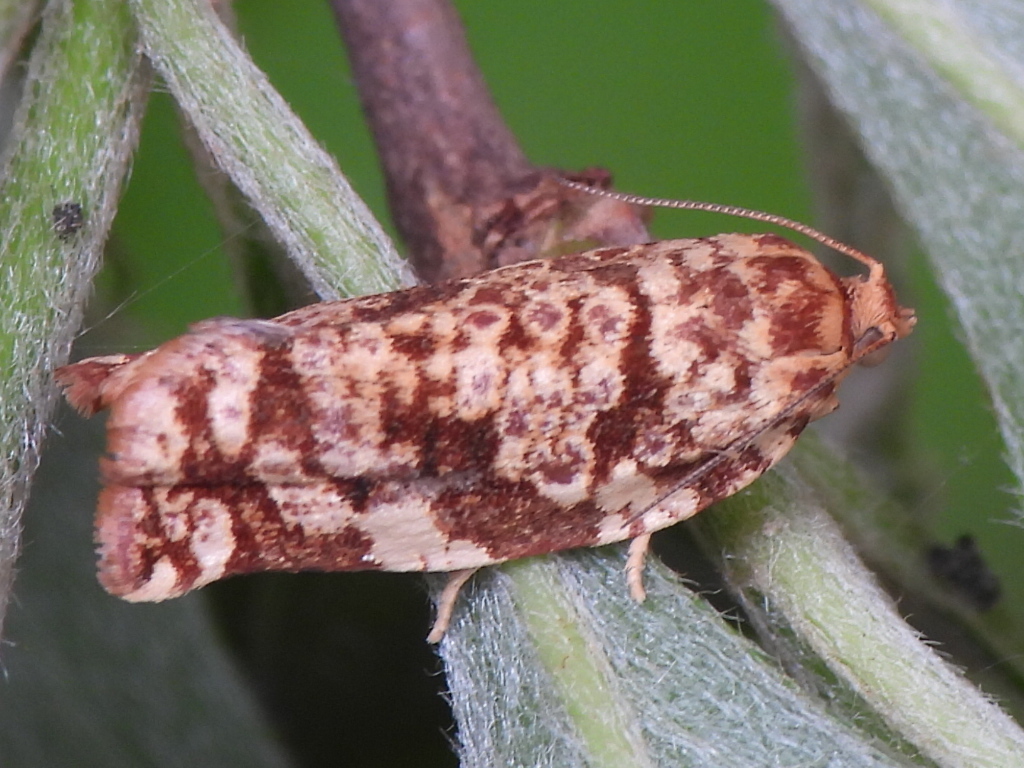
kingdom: Animalia
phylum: Arthropoda
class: Insecta
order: Lepidoptera
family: Tortricidae
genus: Archips
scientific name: Archips argyrospila
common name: Fruit-tree leafroller moth
